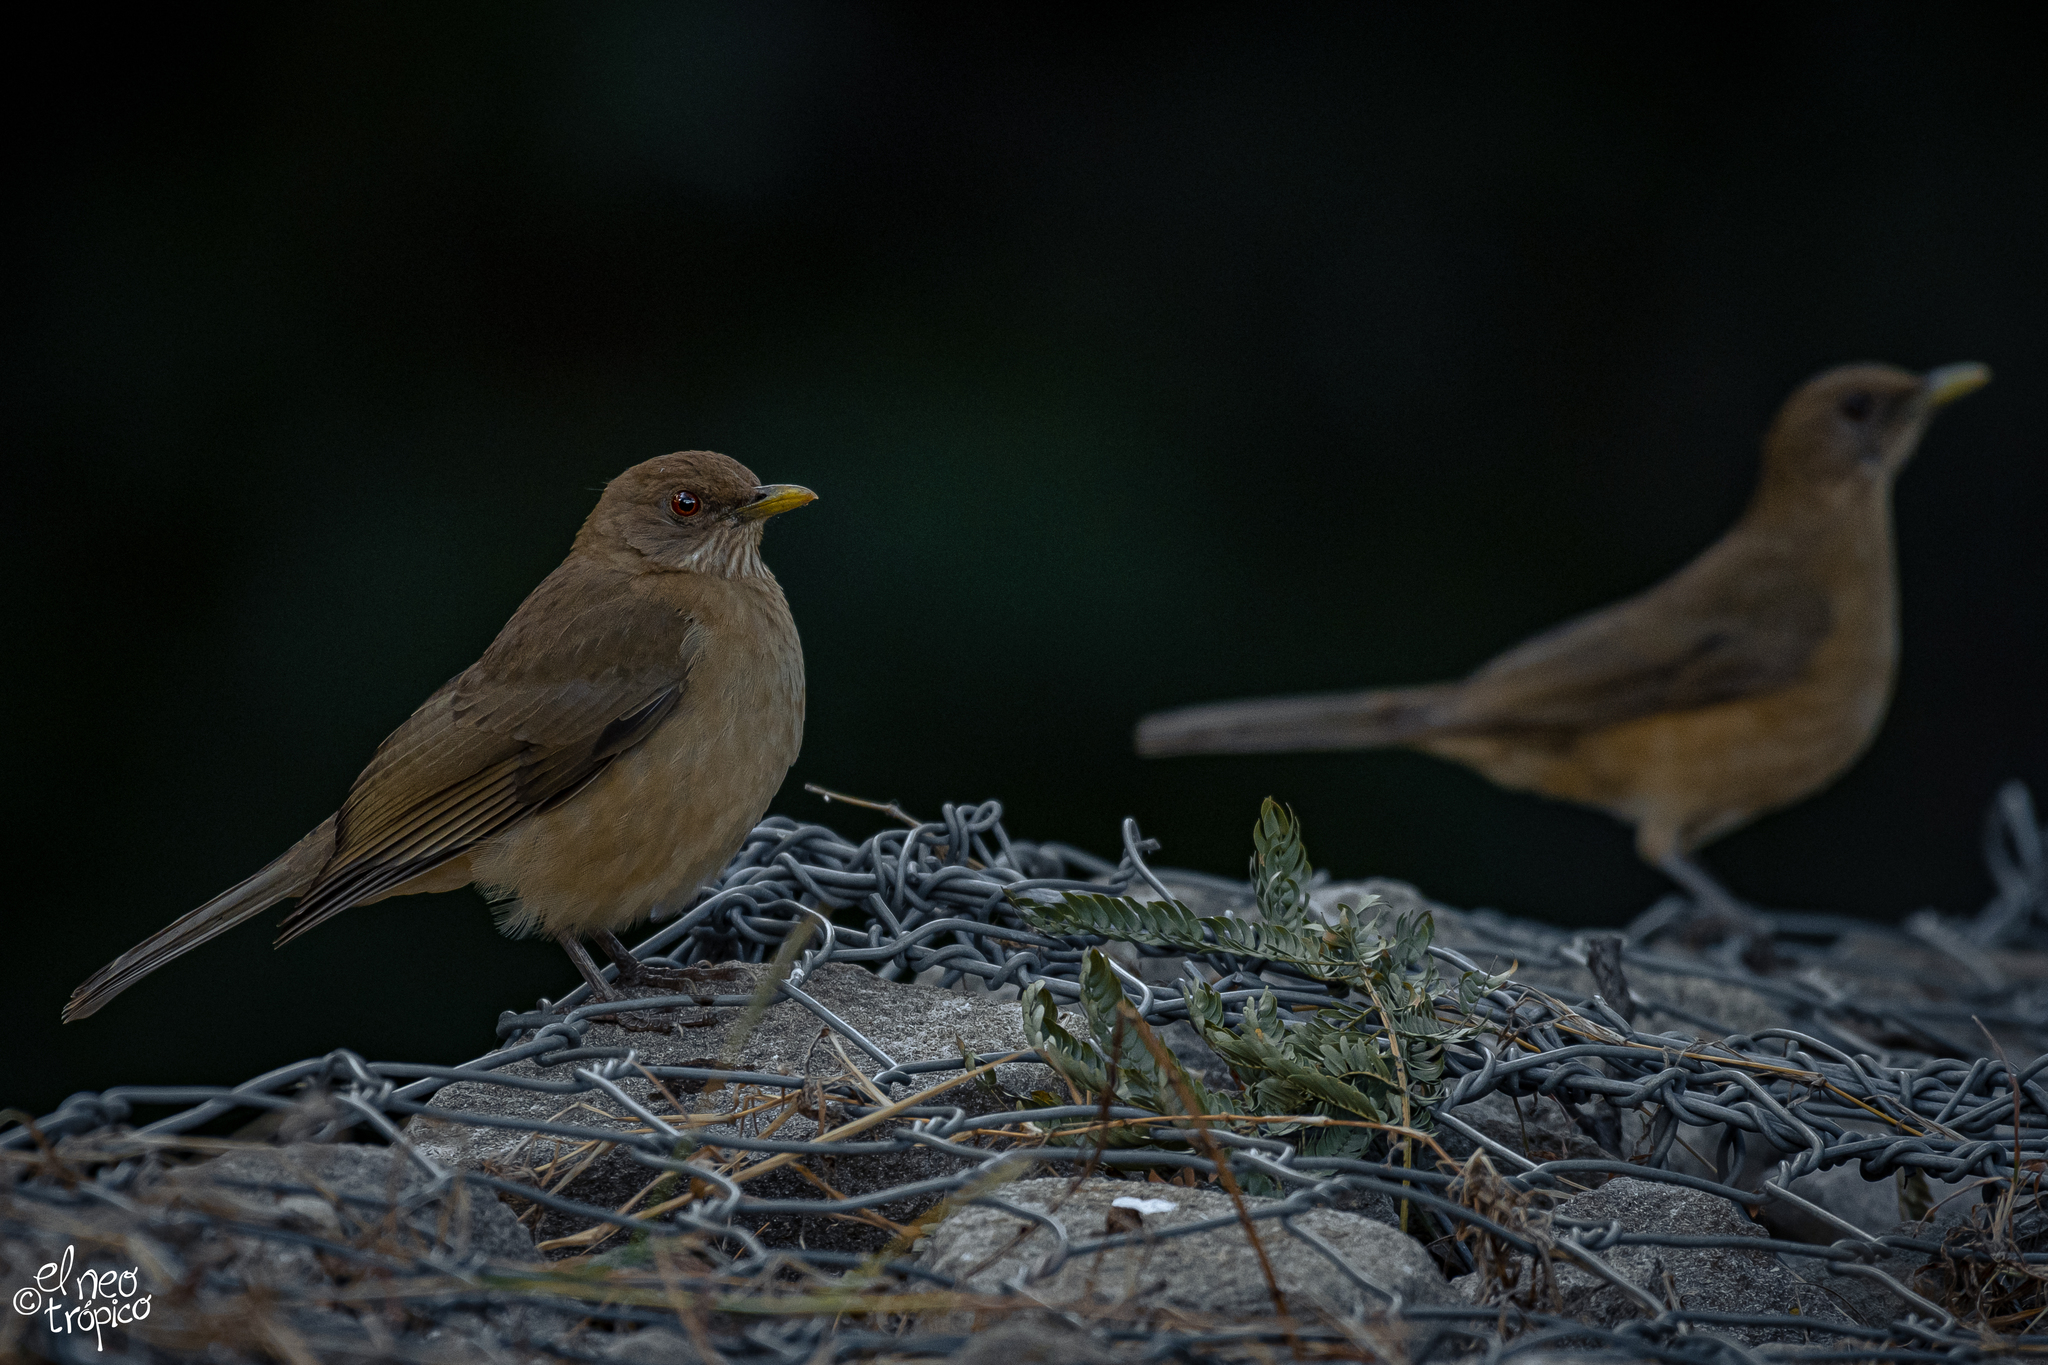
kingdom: Animalia
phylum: Chordata
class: Aves
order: Passeriformes
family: Turdidae
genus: Turdus
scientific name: Turdus grayi
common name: Clay-colored thrush
